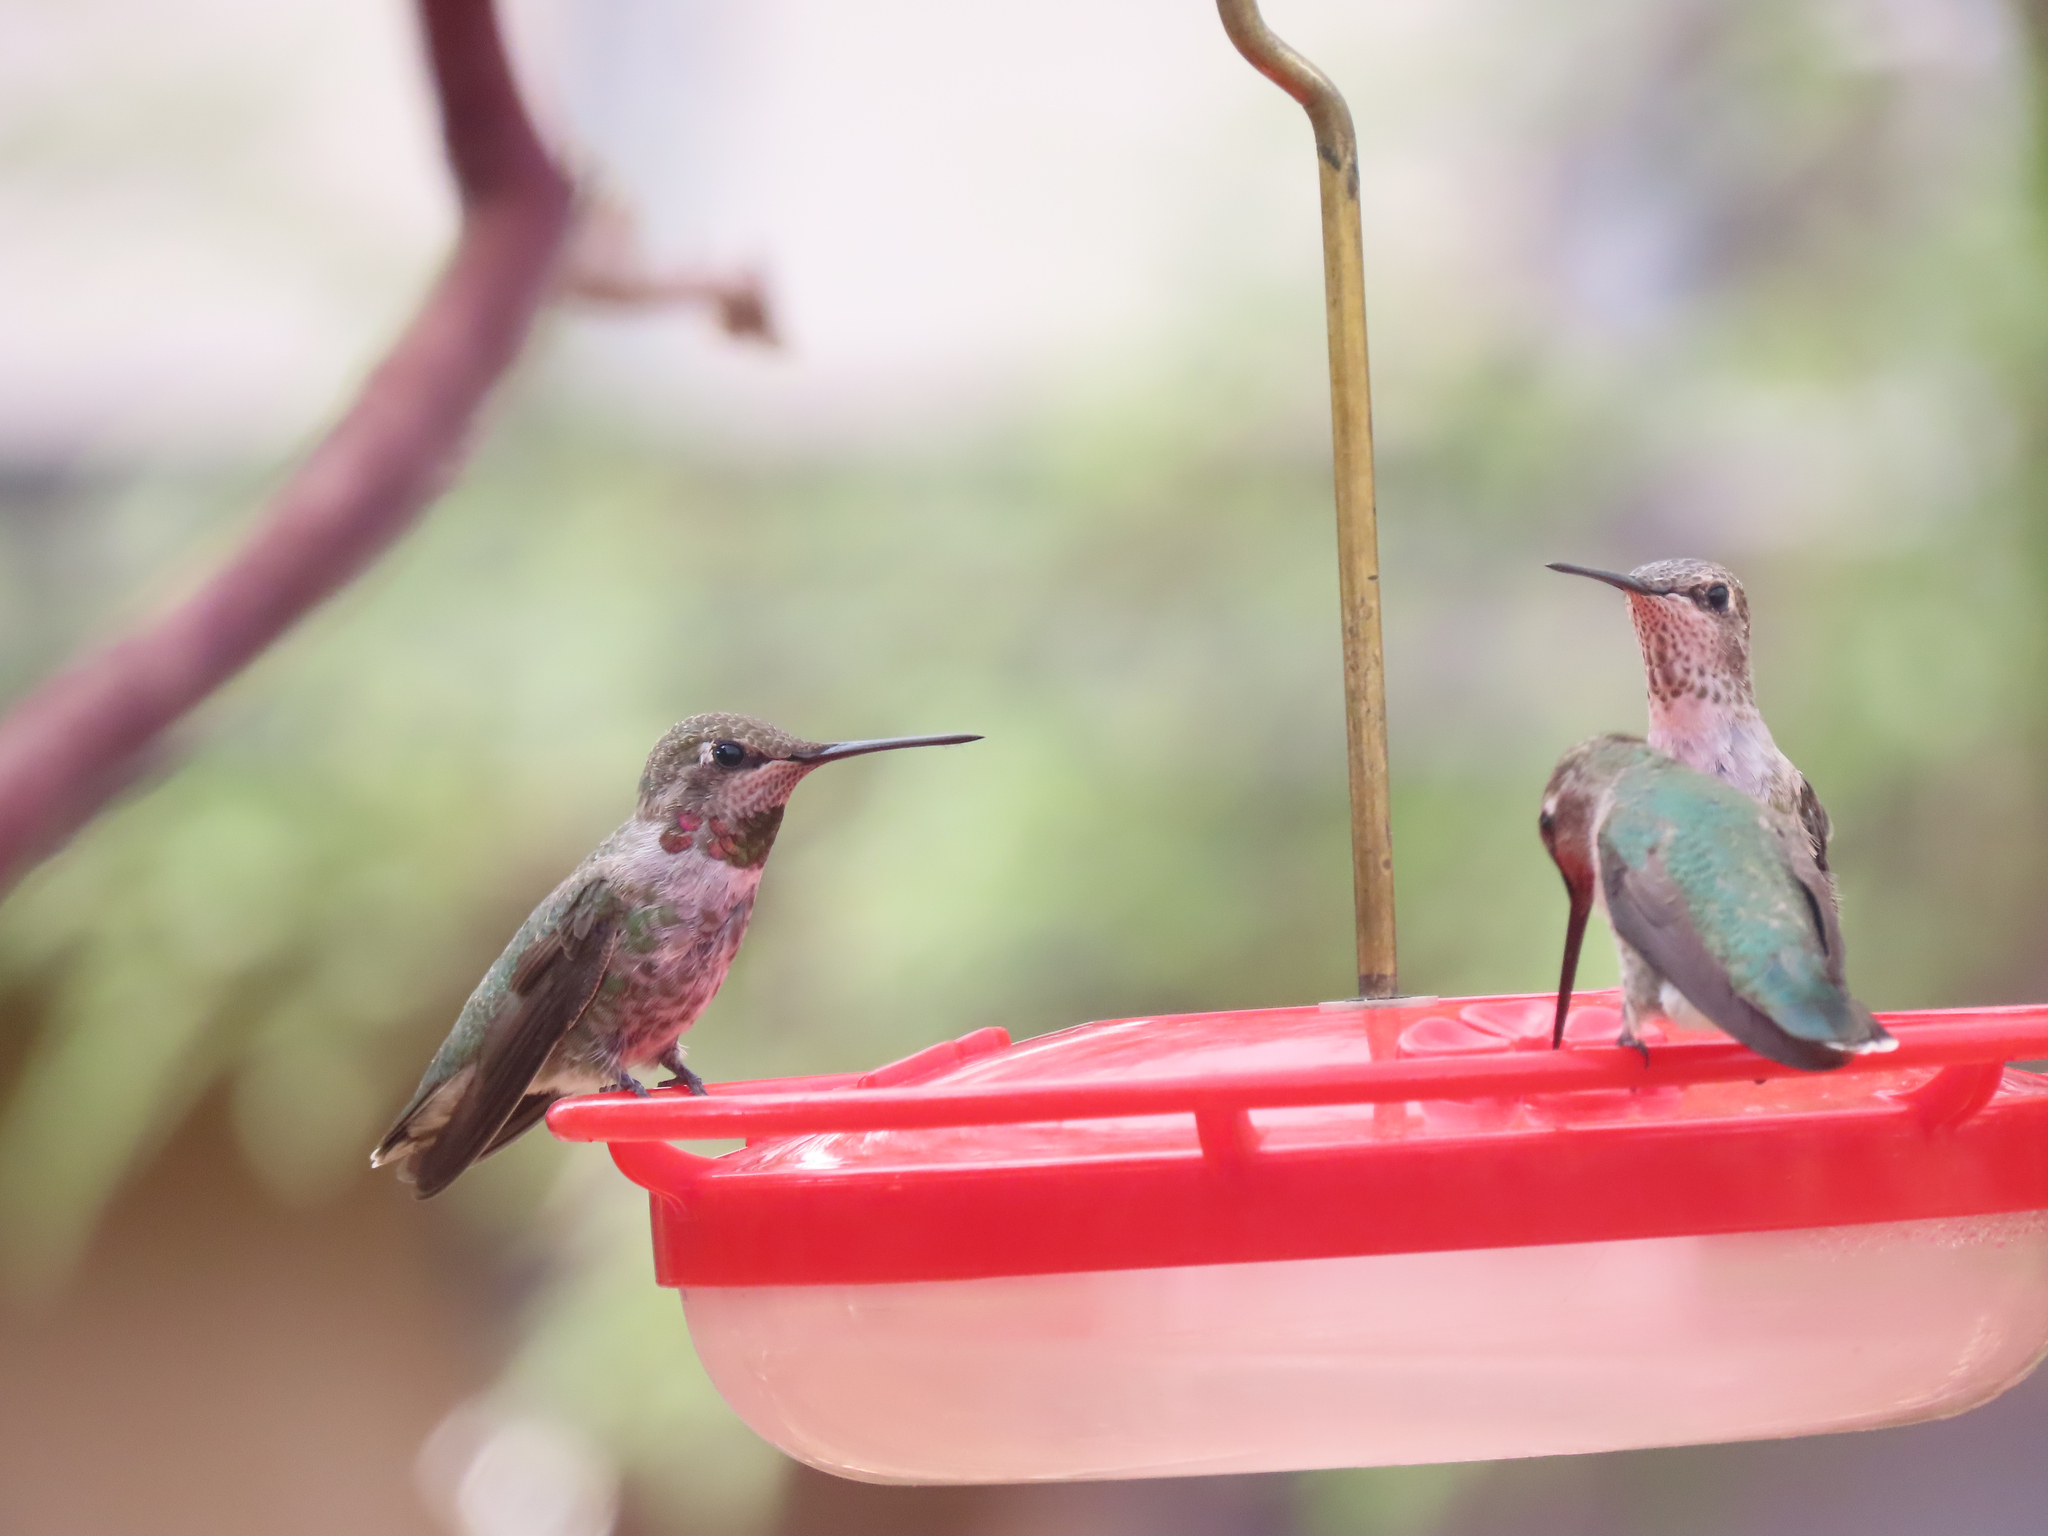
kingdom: Animalia
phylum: Chordata
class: Aves
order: Apodiformes
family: Trochilidae
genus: Calypte
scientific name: Calypte anna
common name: Anna's hummingbird
